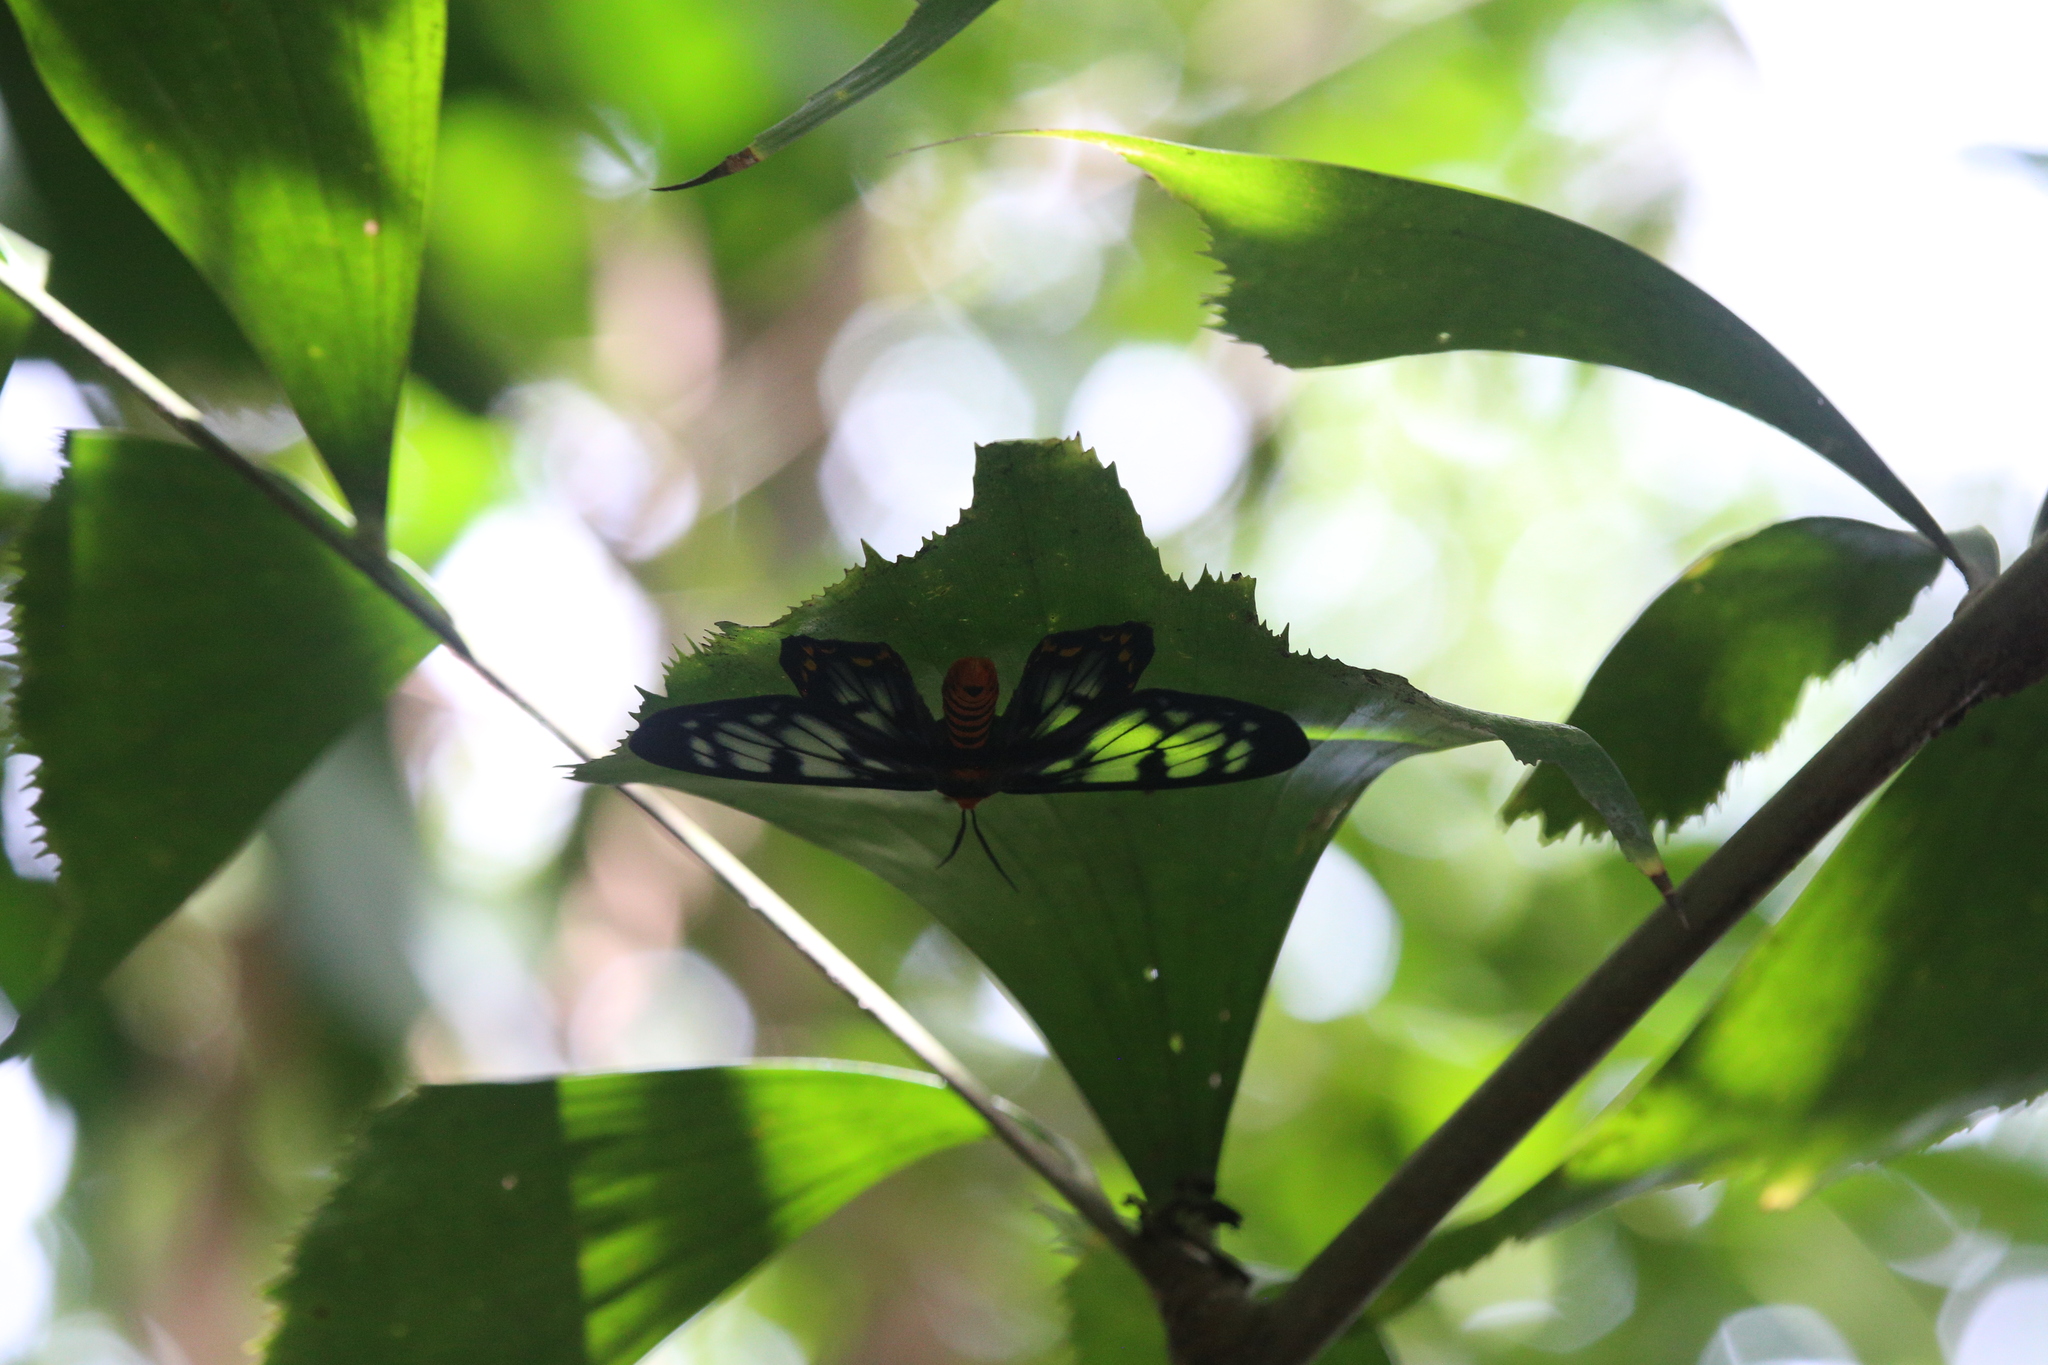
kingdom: Animalia
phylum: Arthropoda
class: Insecta
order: Lepidoptera
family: Geometridae
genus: Dysphania
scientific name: Dysphania numana
